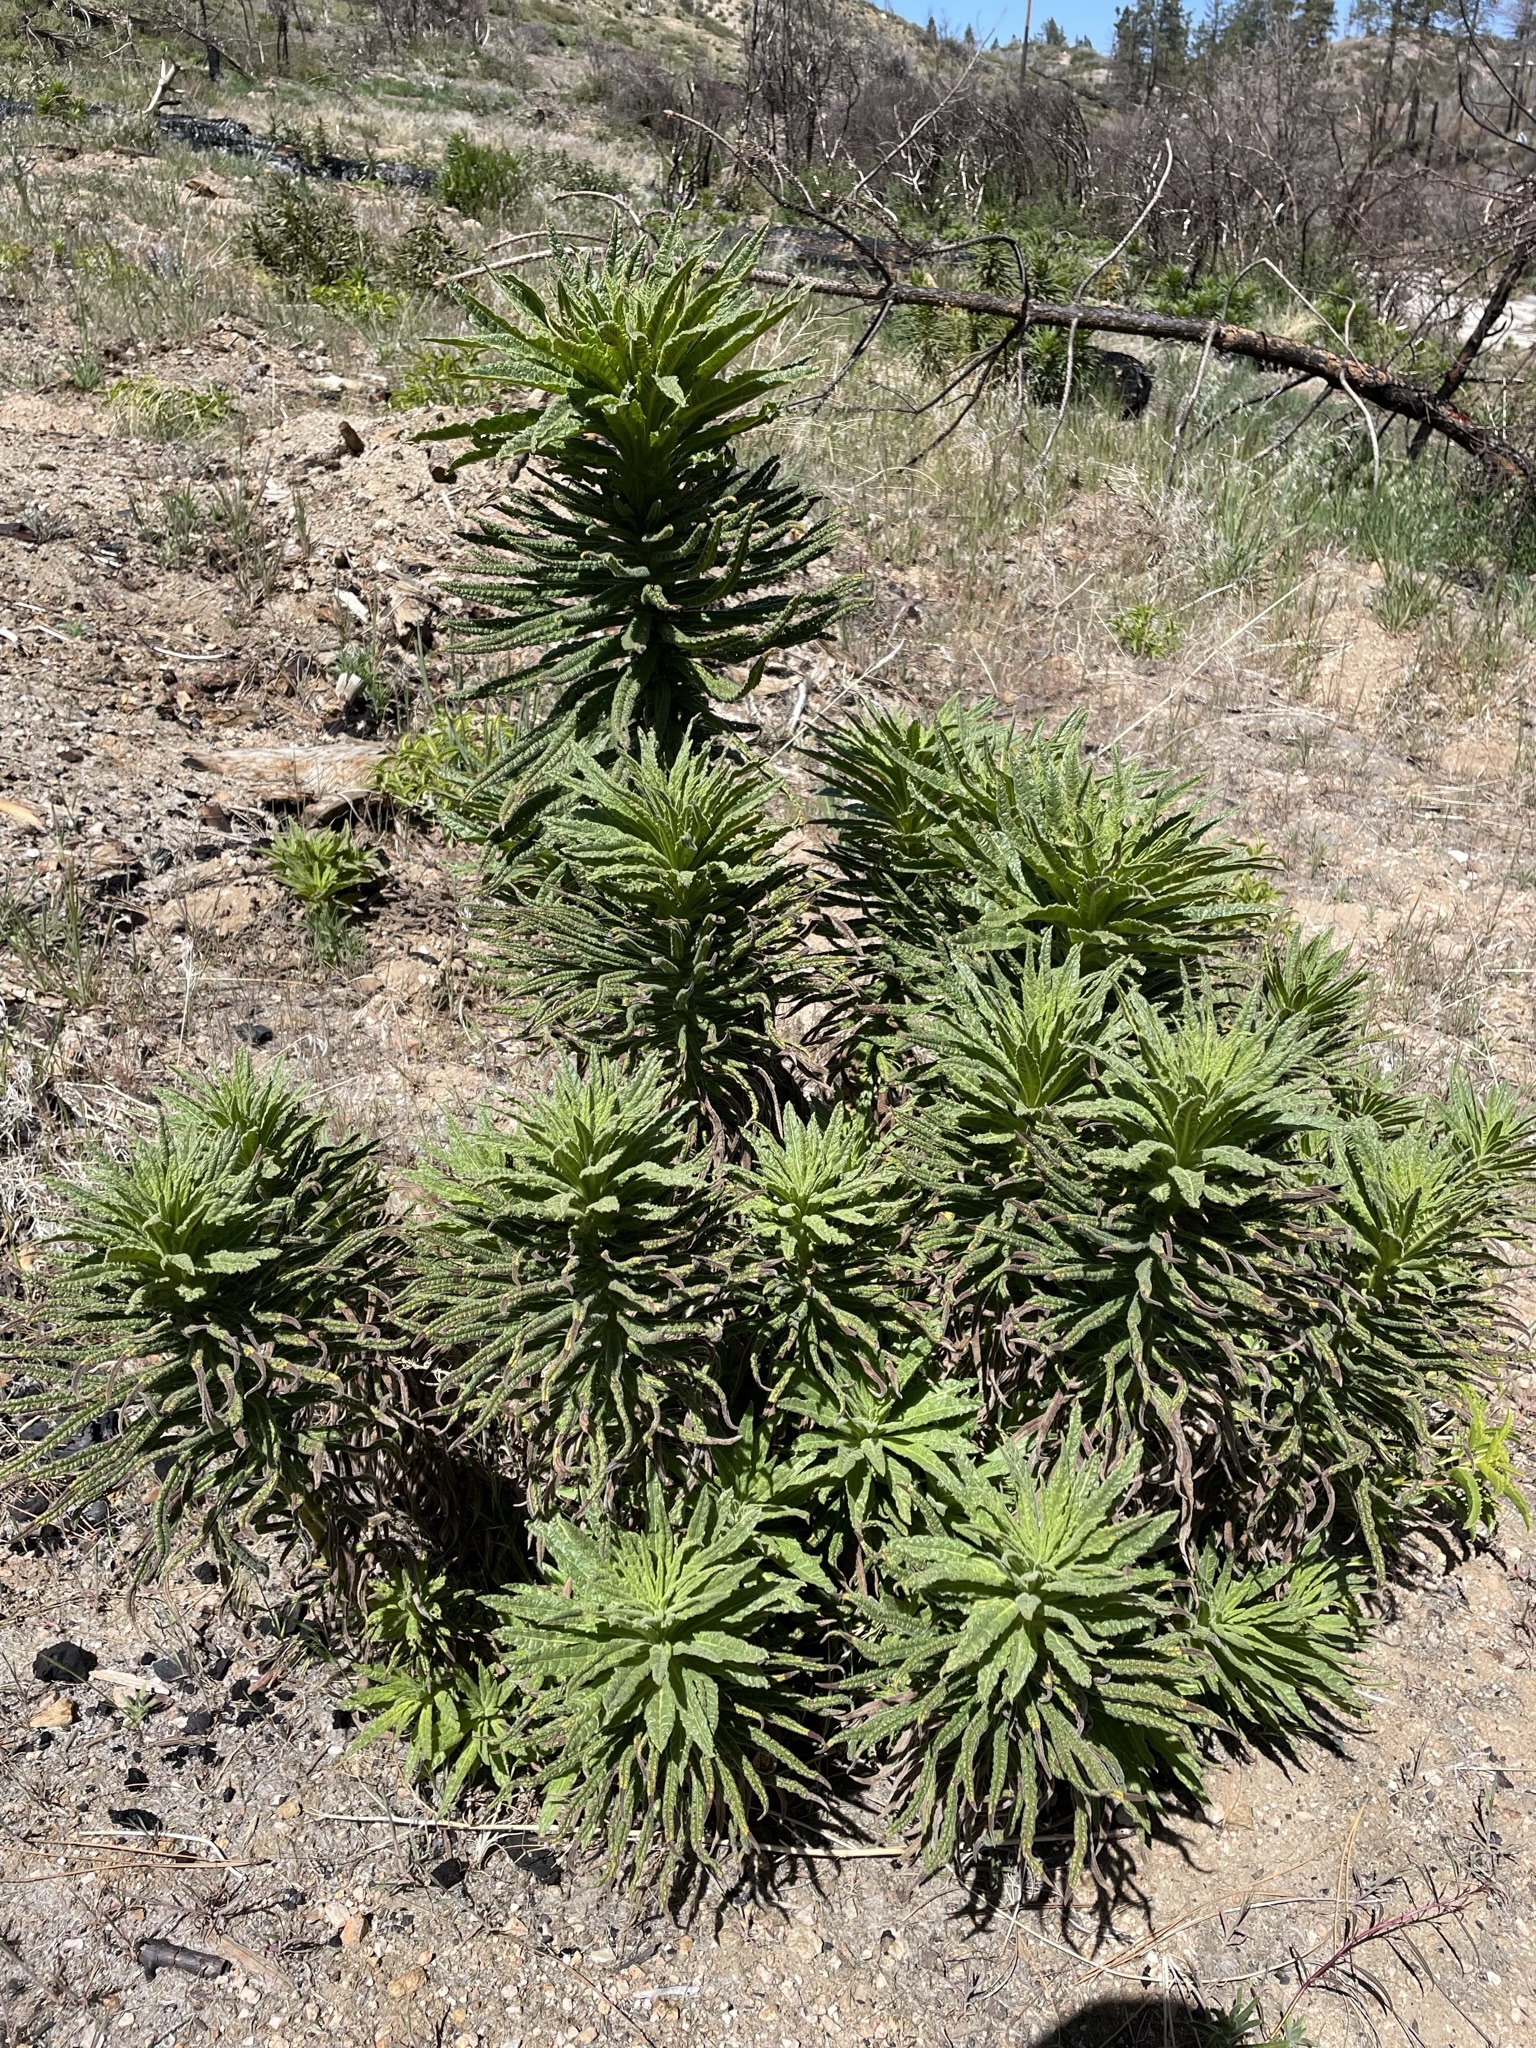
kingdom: Plantae
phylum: Tracheophyta
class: Magnoliopsida
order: Boraginales
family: Namaceae
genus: Turricula
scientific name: Turricula parryi
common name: Poodle-dog-bush
